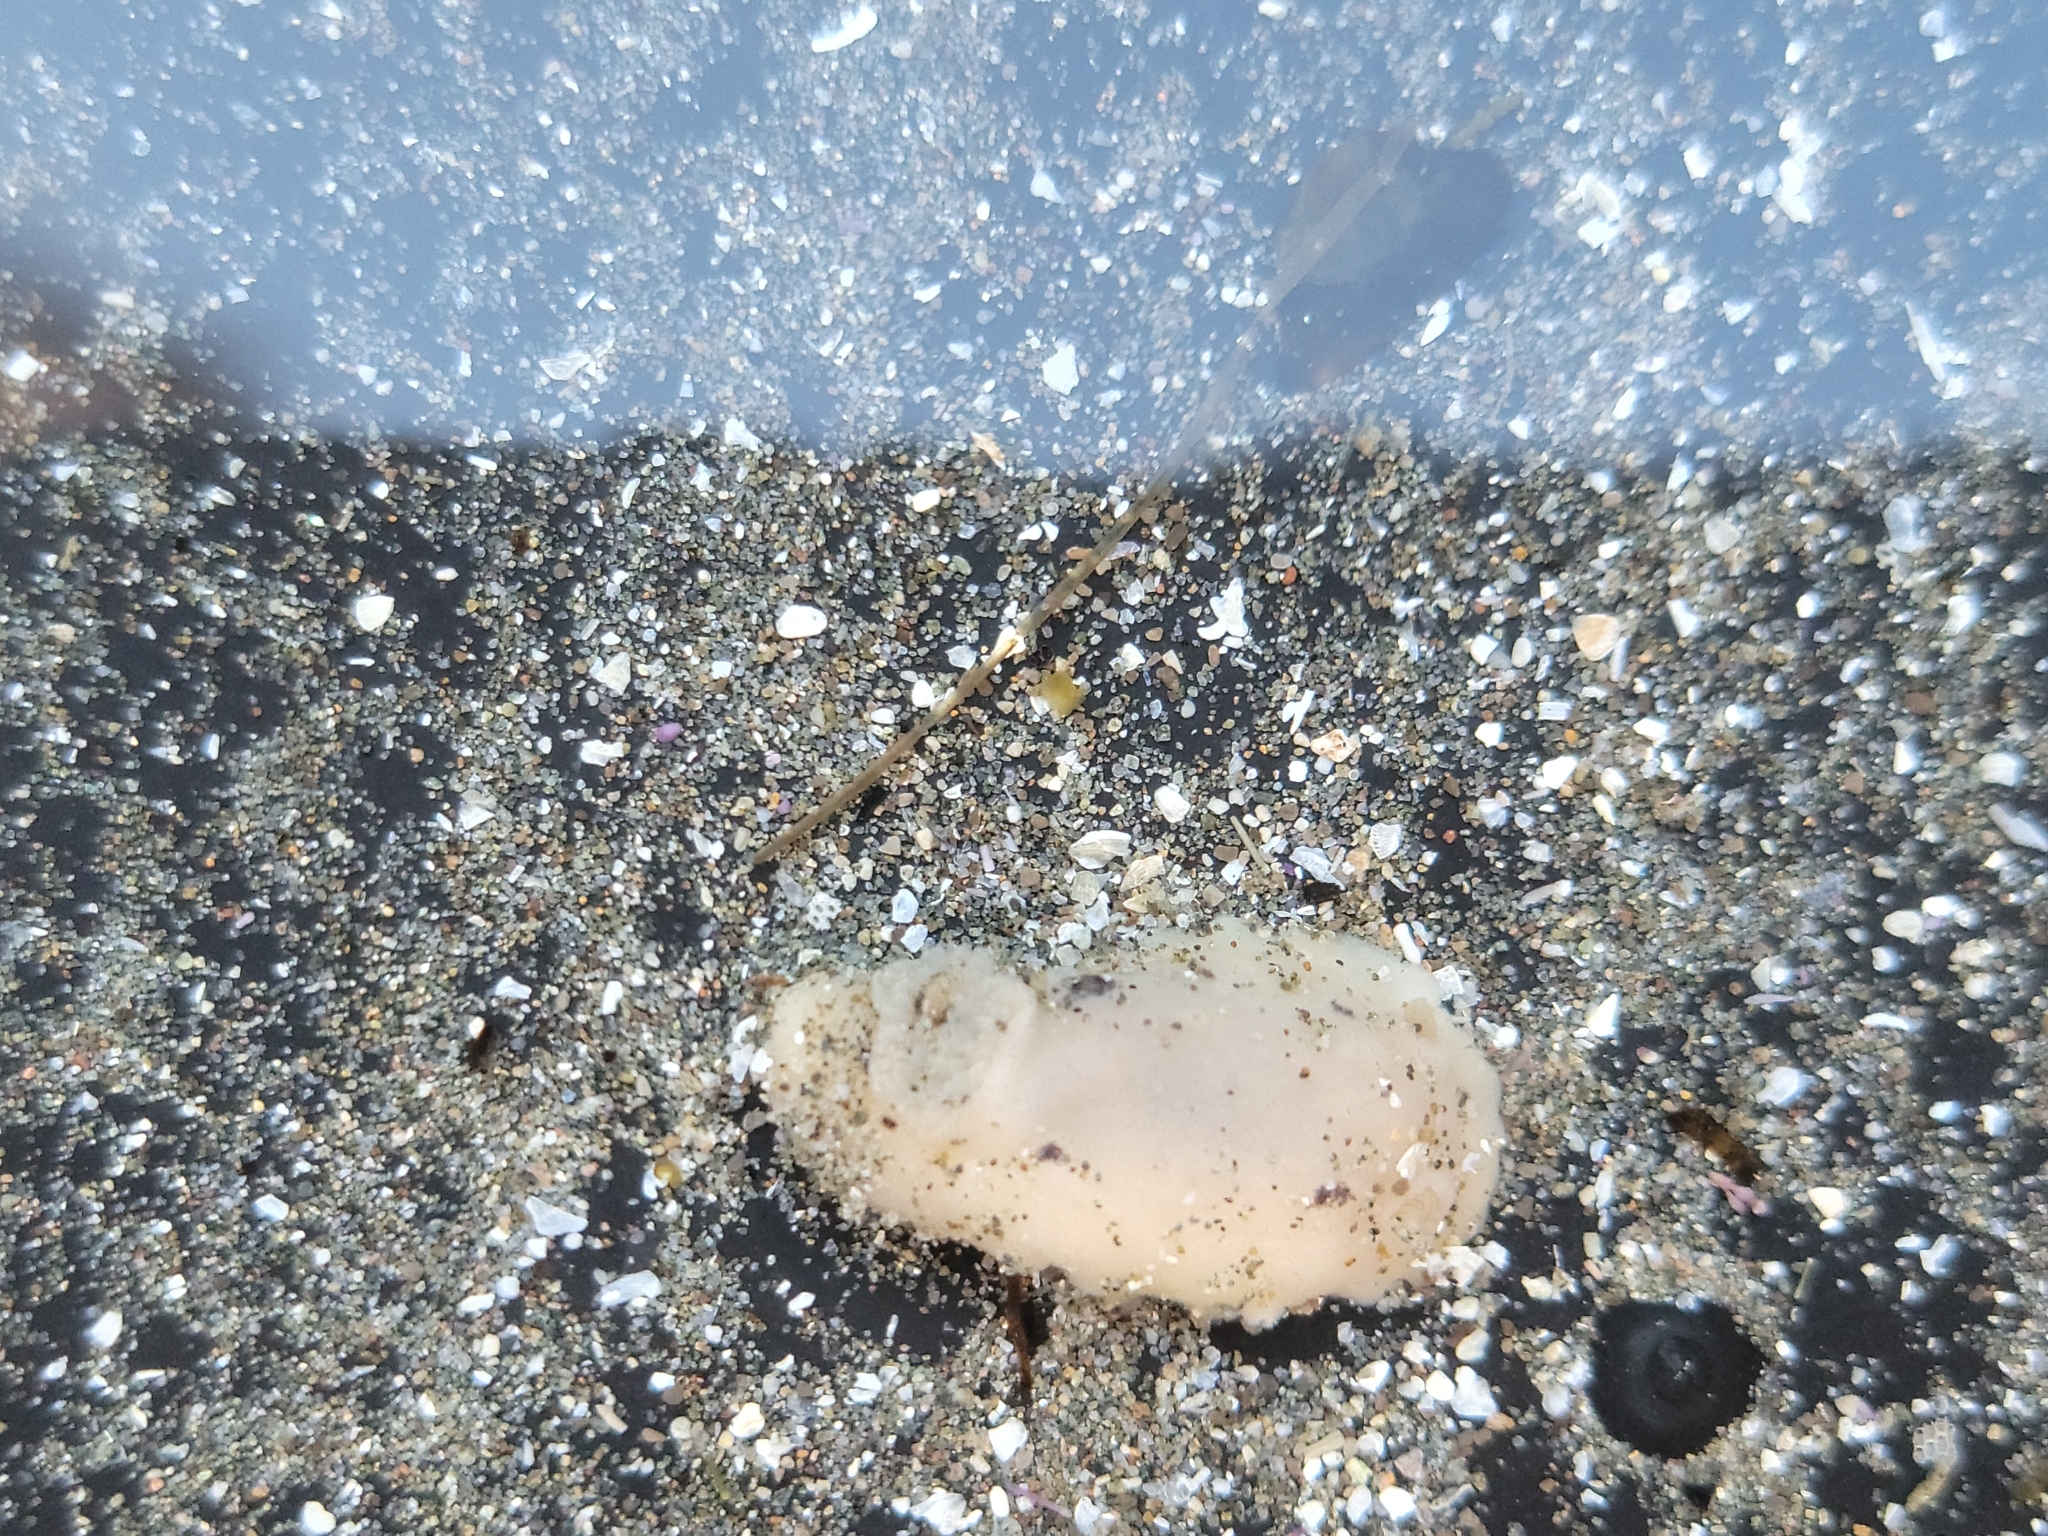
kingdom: Animalia
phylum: Mollusca
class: Gastropoda
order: Nudibranchia
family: Discodorididae
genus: Diaulula
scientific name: Diaulula sandiegensis
